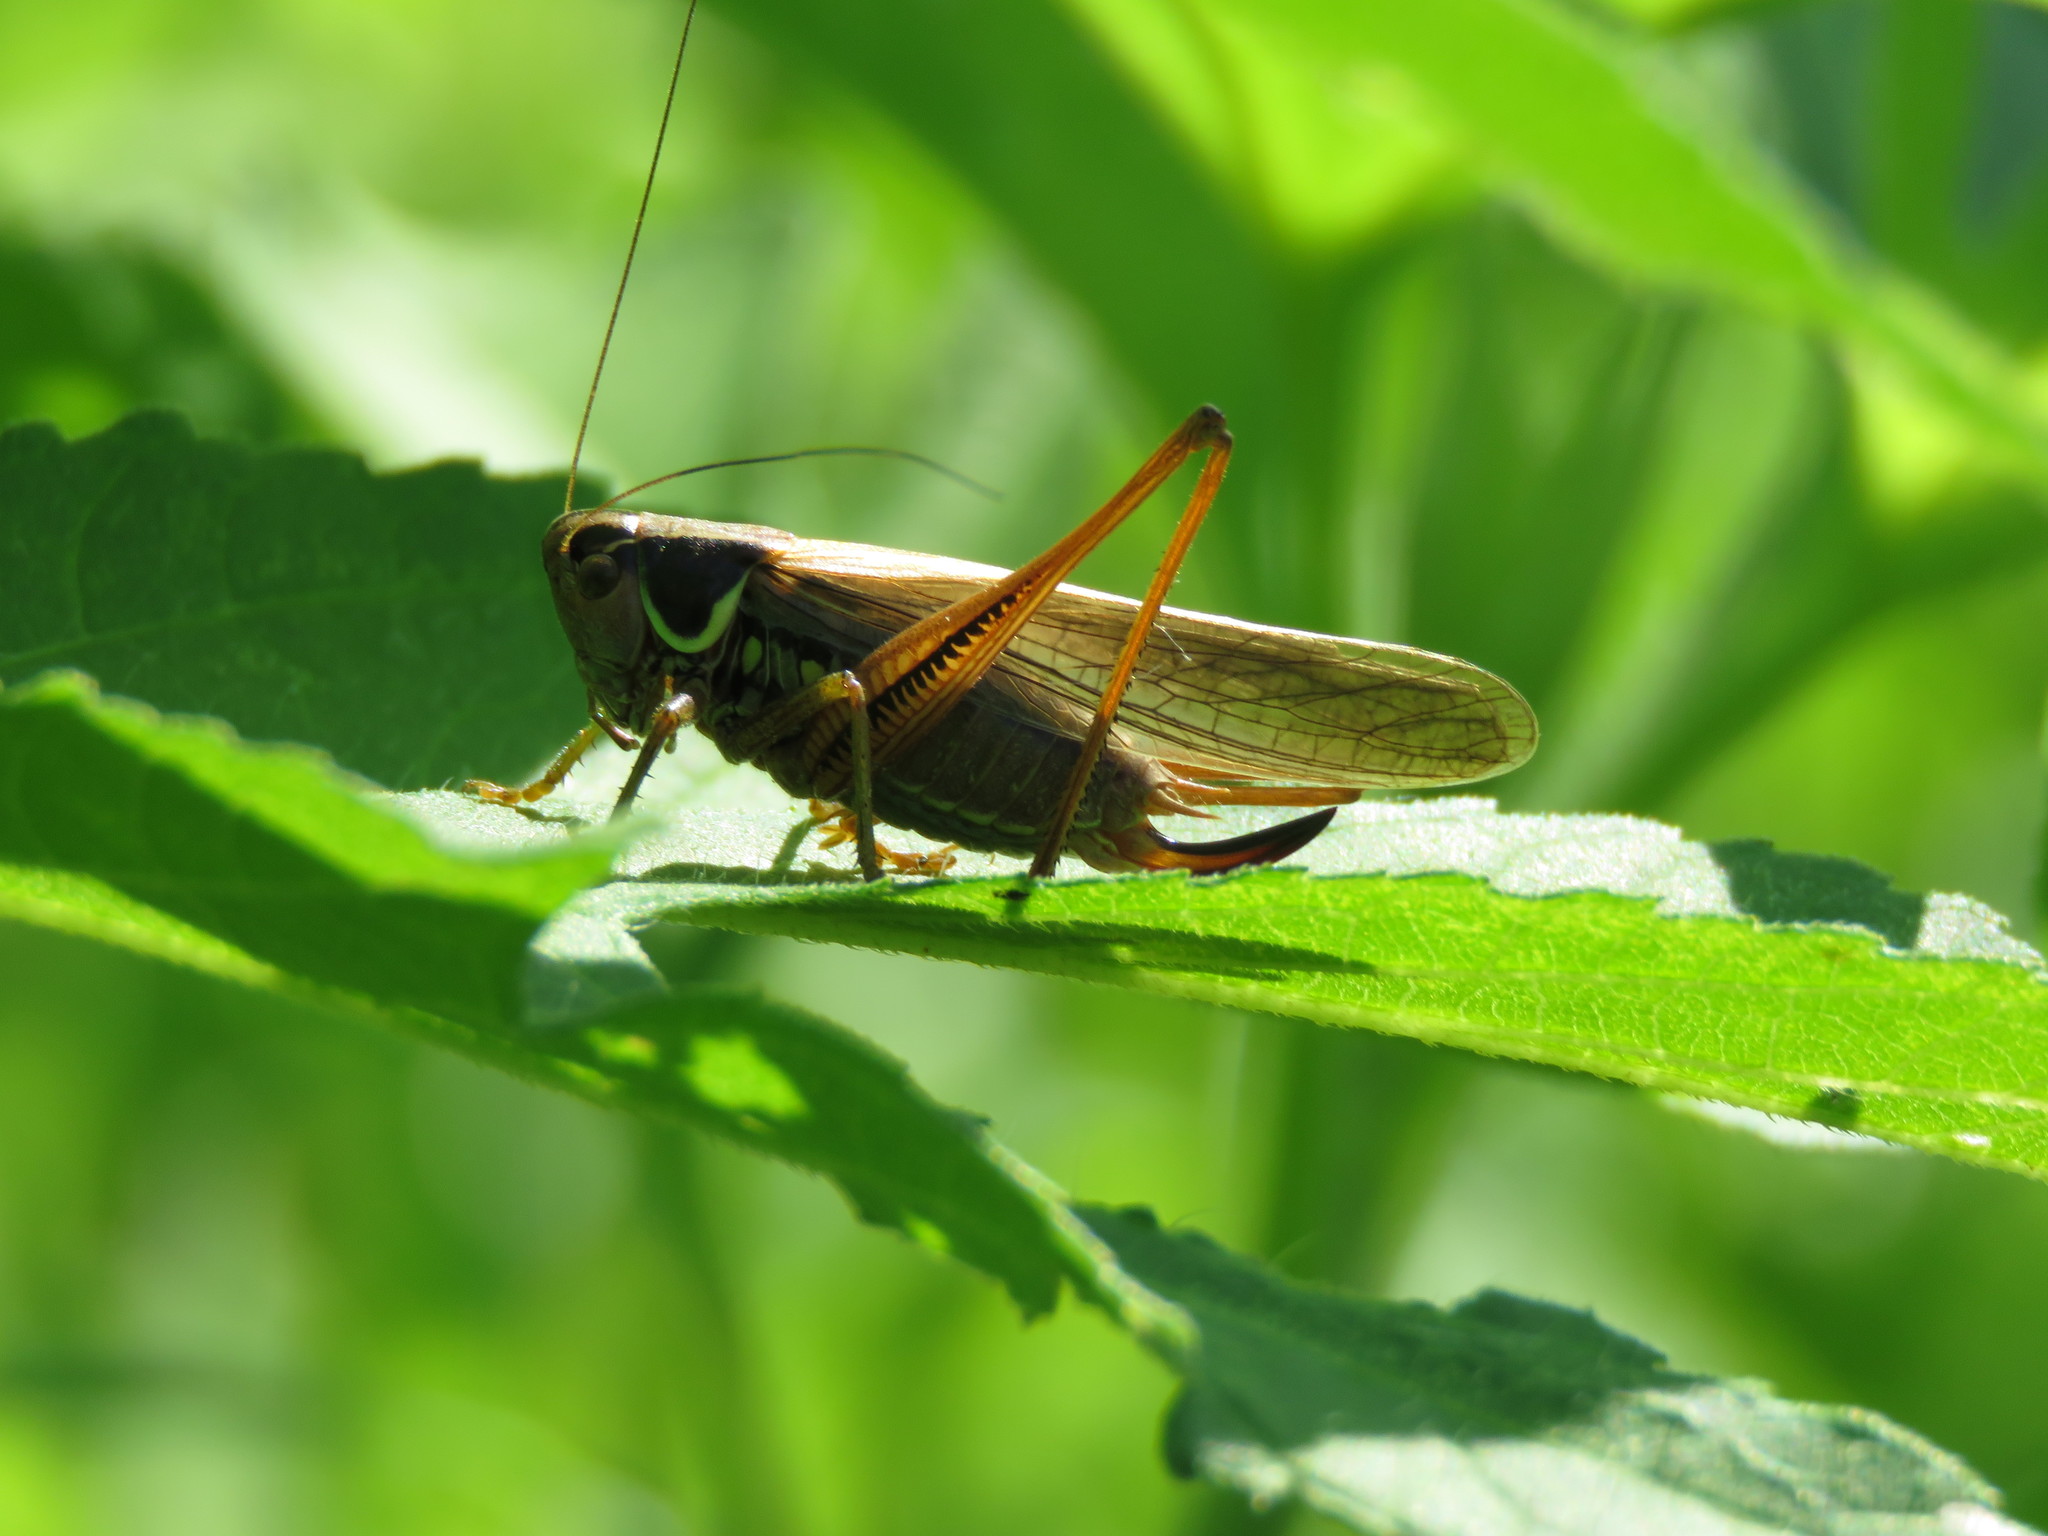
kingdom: Animalia
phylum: Arthropoda
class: Insecta
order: Orthoptera
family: Tettigoniidae
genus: Roeseliana
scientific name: Roeseliana roeselii
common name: Roesel's bush cricket
